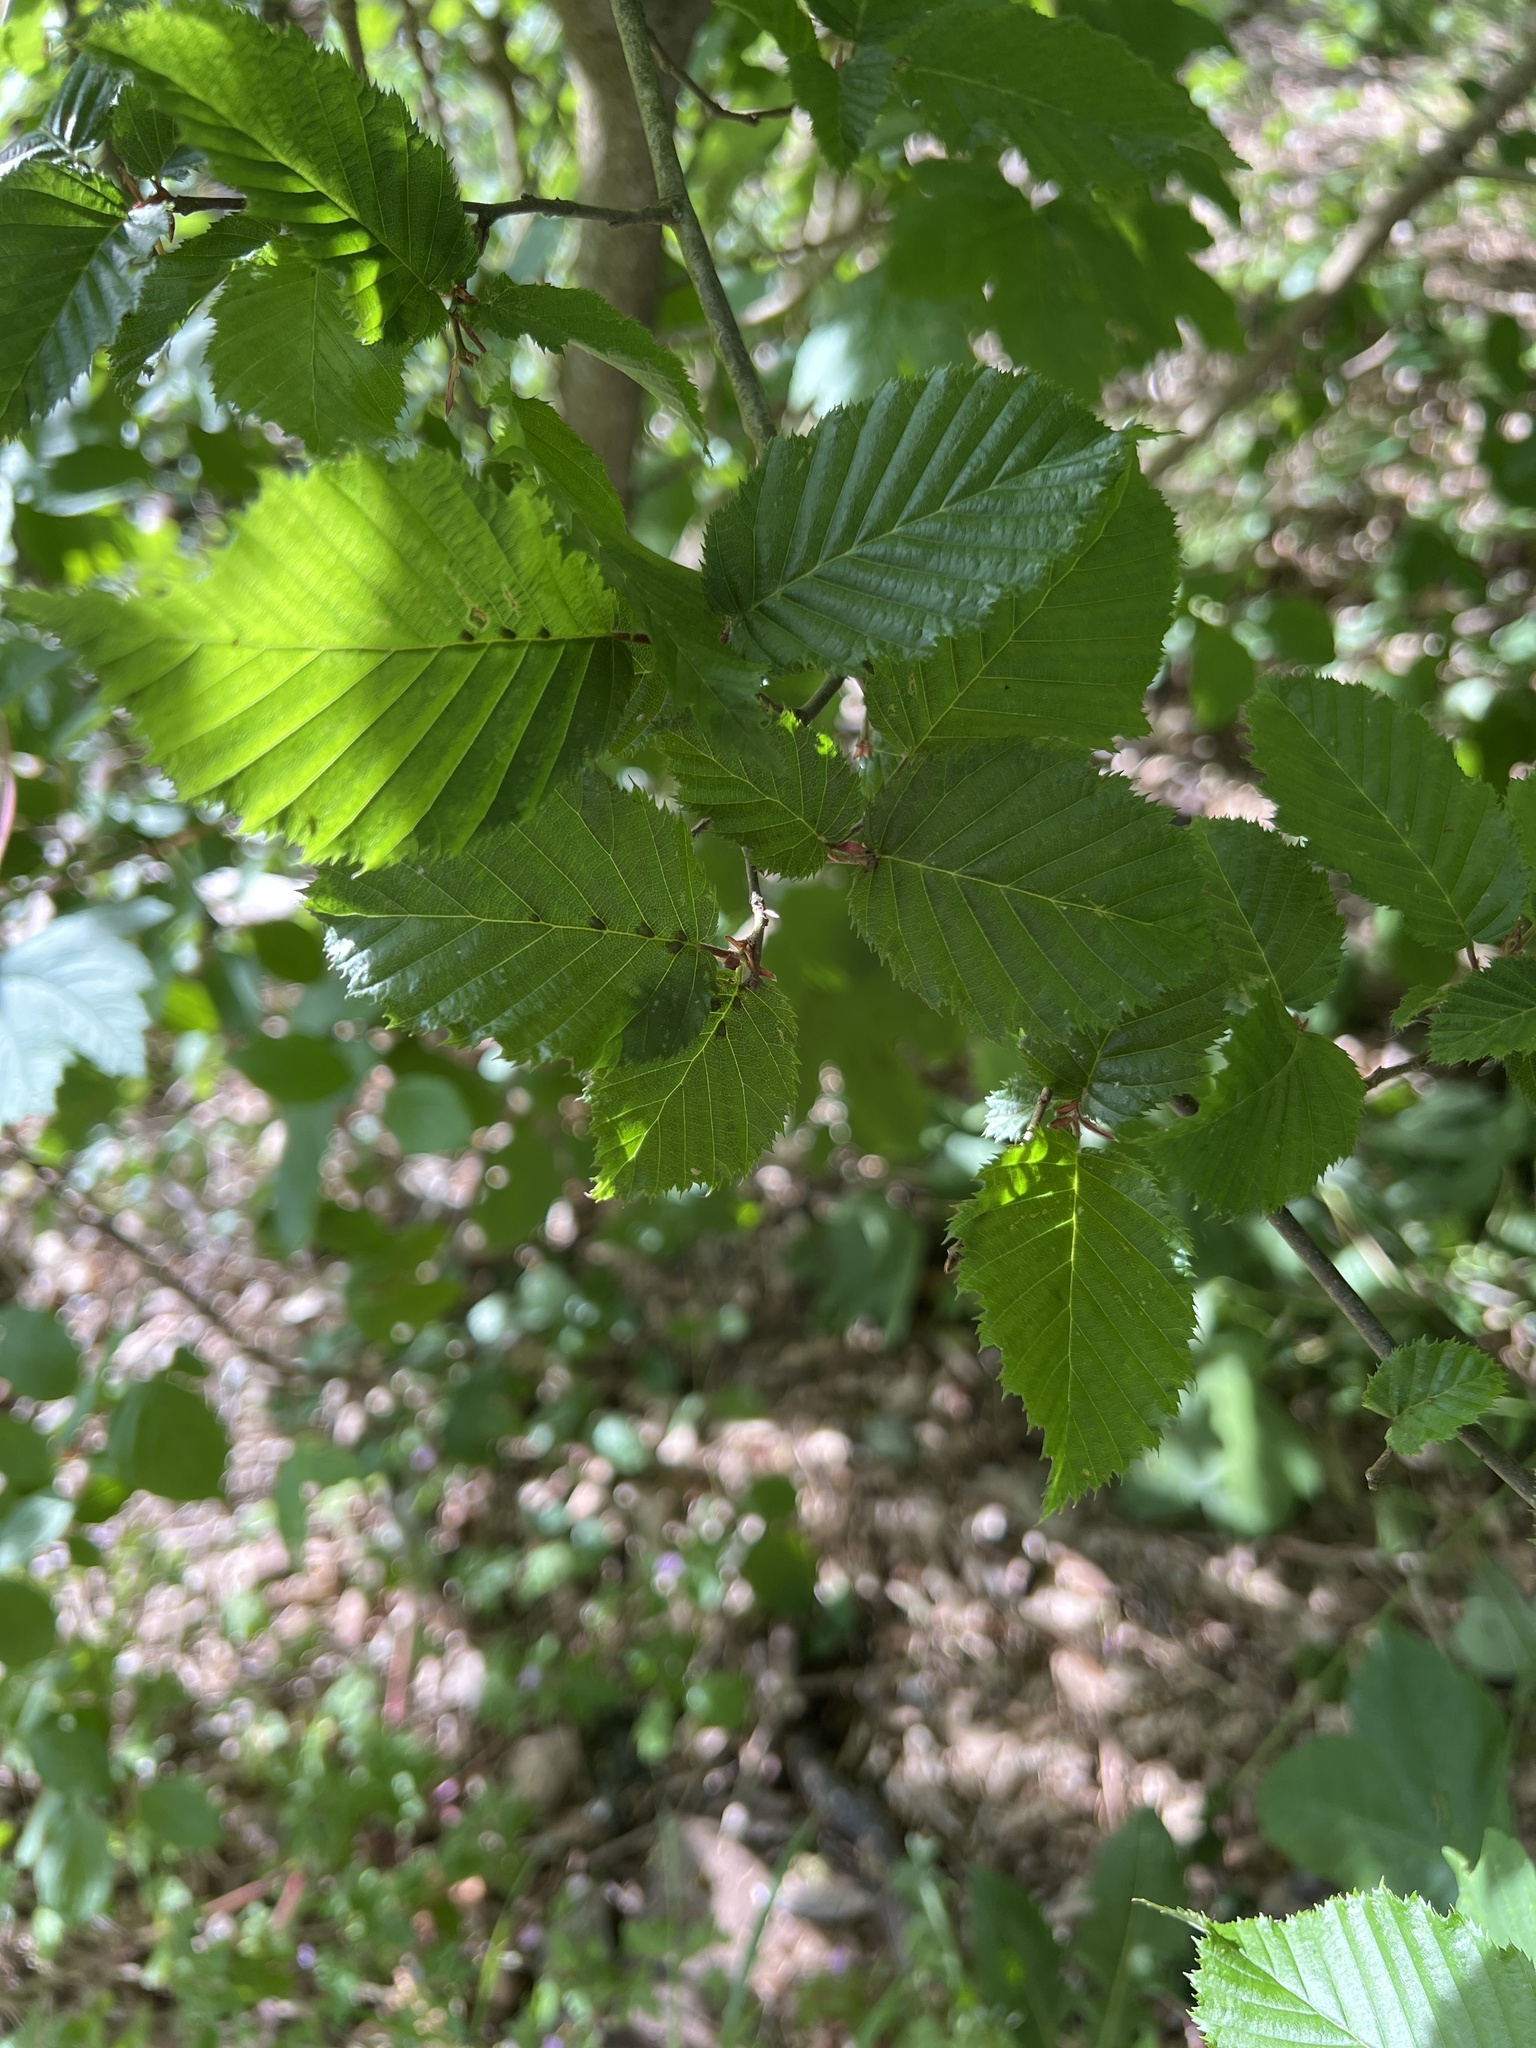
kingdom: Plantae
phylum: Tracheophyta
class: Magnoliopsida
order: Fagales
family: Betulaceae
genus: Carpinus
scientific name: Carpinus betulus
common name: Hornbeam
